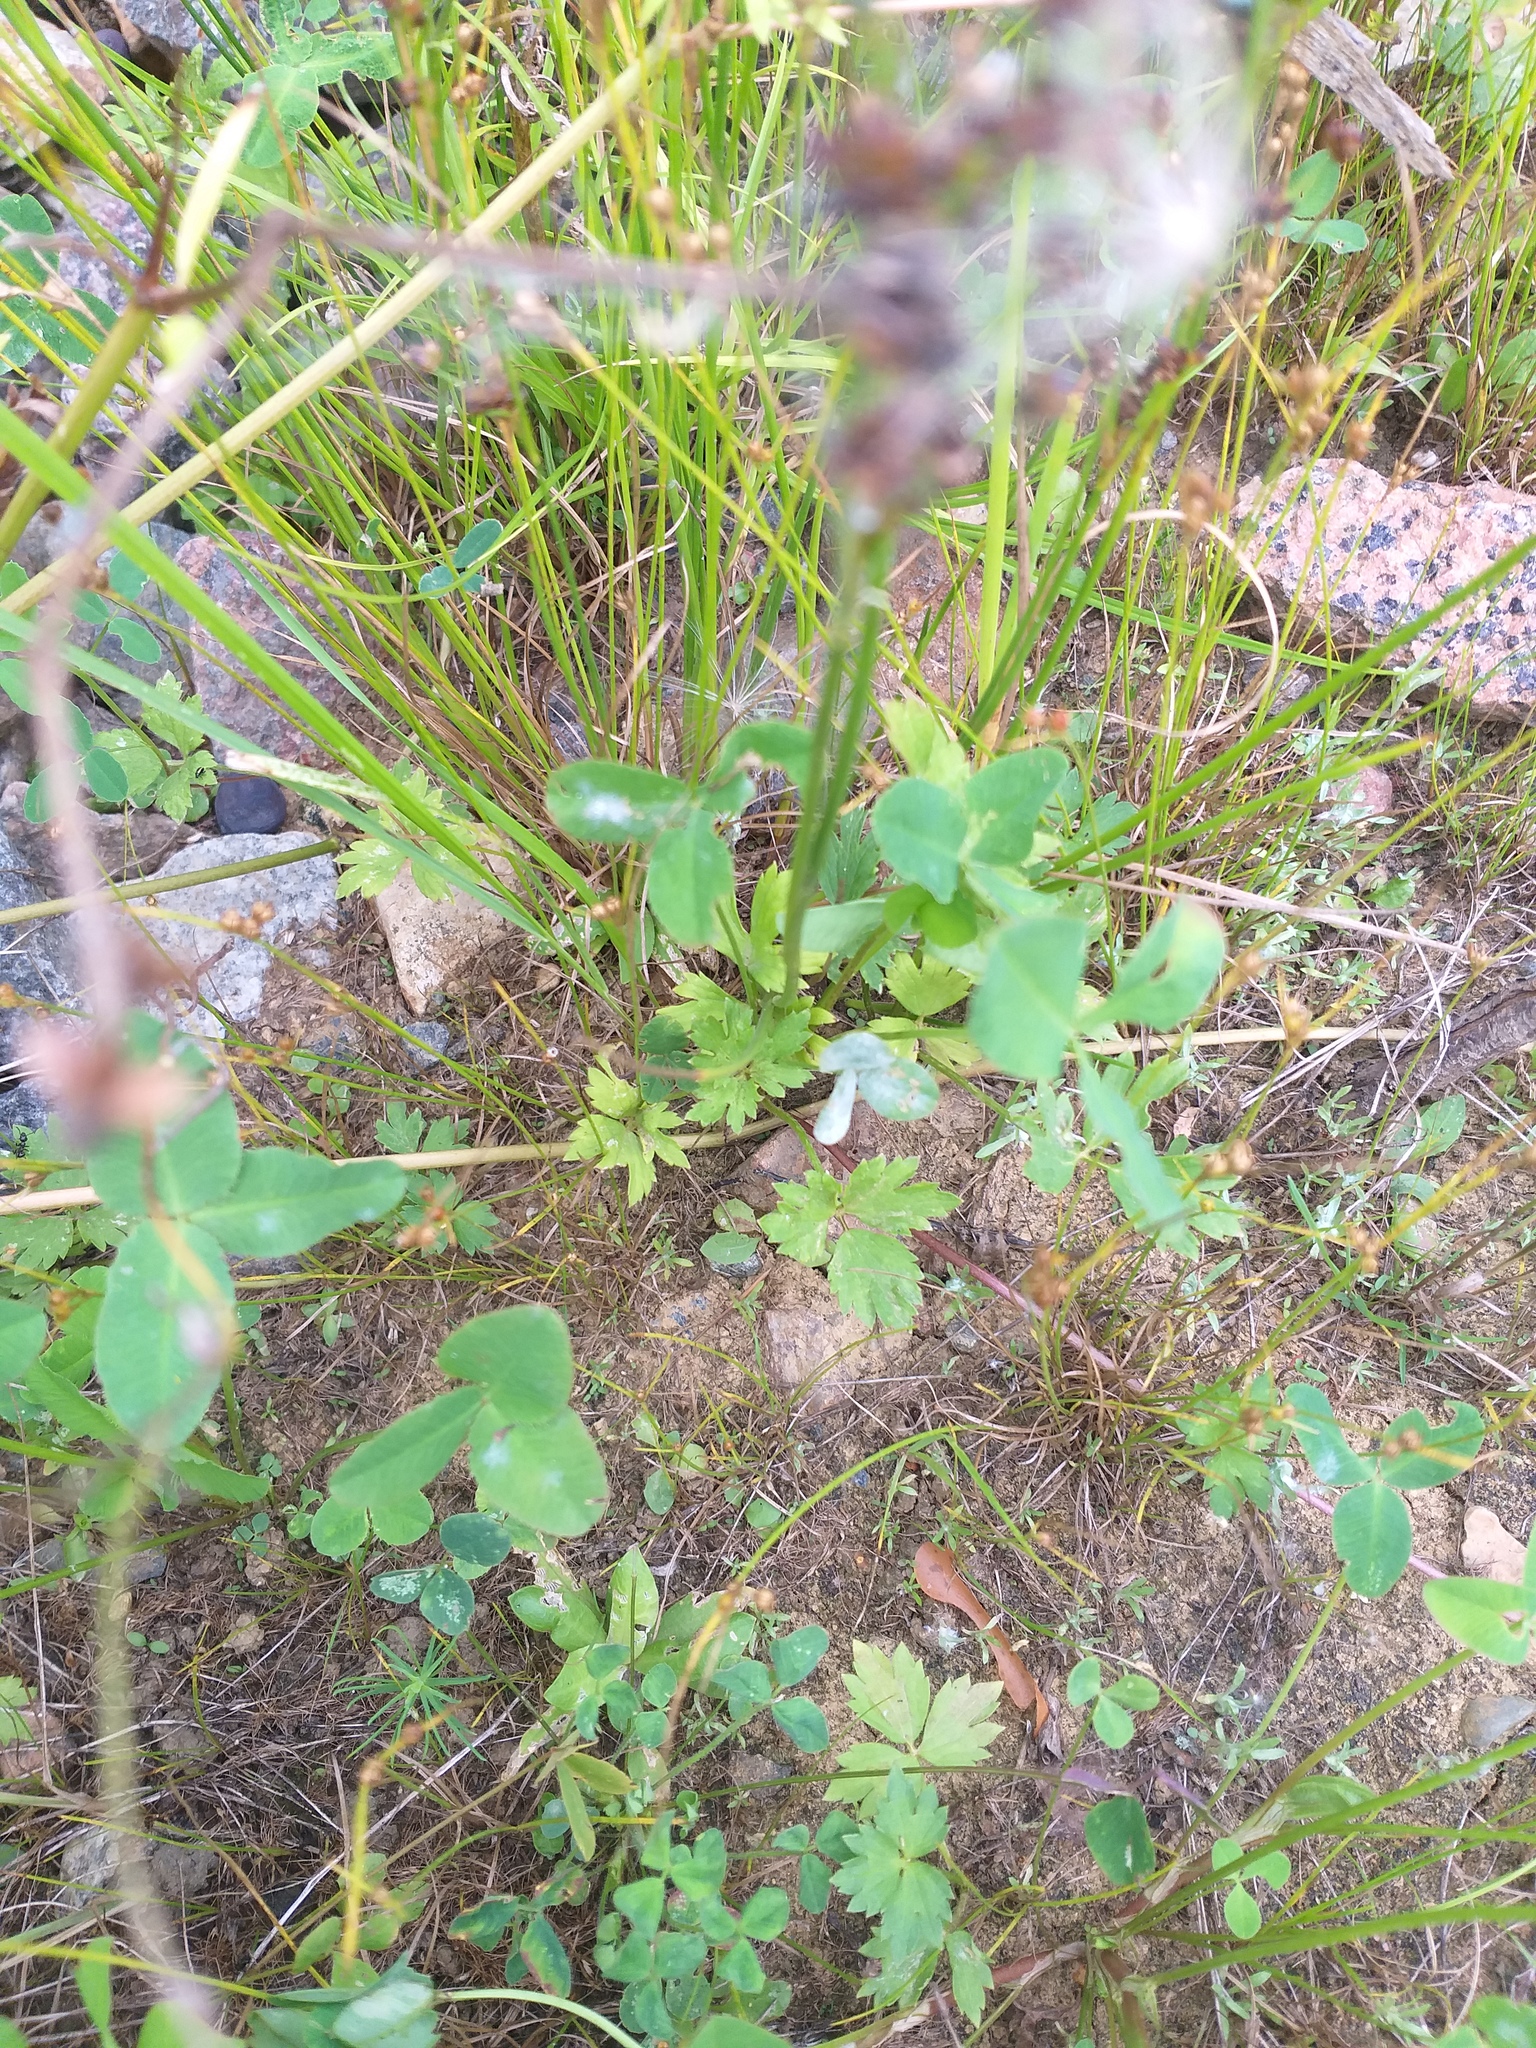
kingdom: Plantae
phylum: Tracheophyta
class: Magnoliopsida
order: Ranunculales
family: Ranunculaceae
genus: Ranunculus
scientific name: Ranunculus repens
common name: Creeping buttercup
